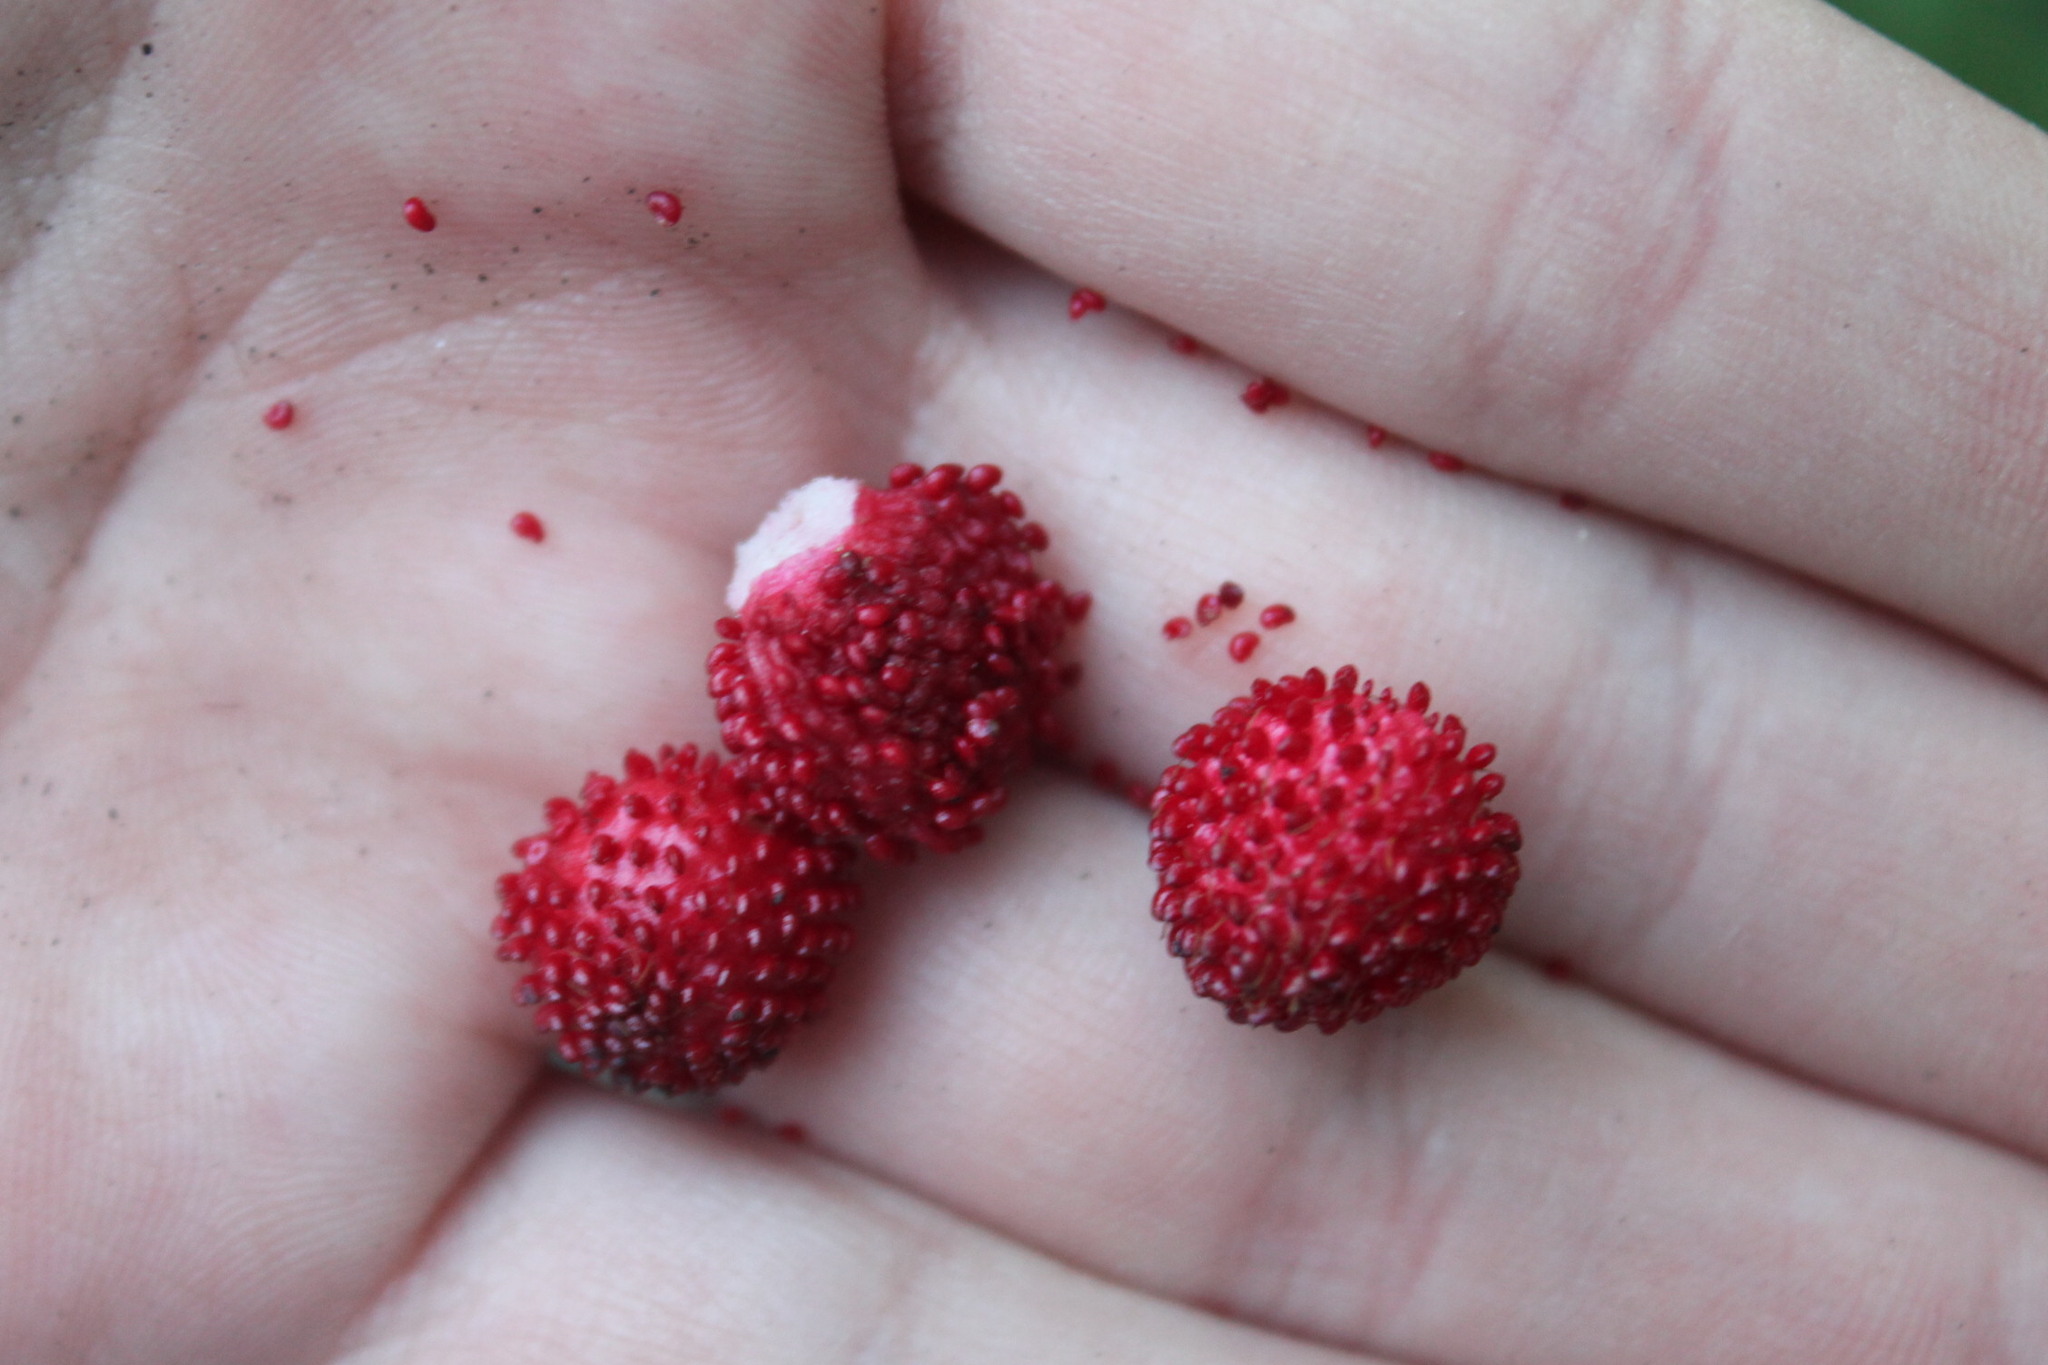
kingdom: Plantae
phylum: Tracheophyta
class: Magnoliopsida
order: Rosales
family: Rosaceae
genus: Potentilla
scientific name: Potentilla indica
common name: Yellow-flowered strawberry
